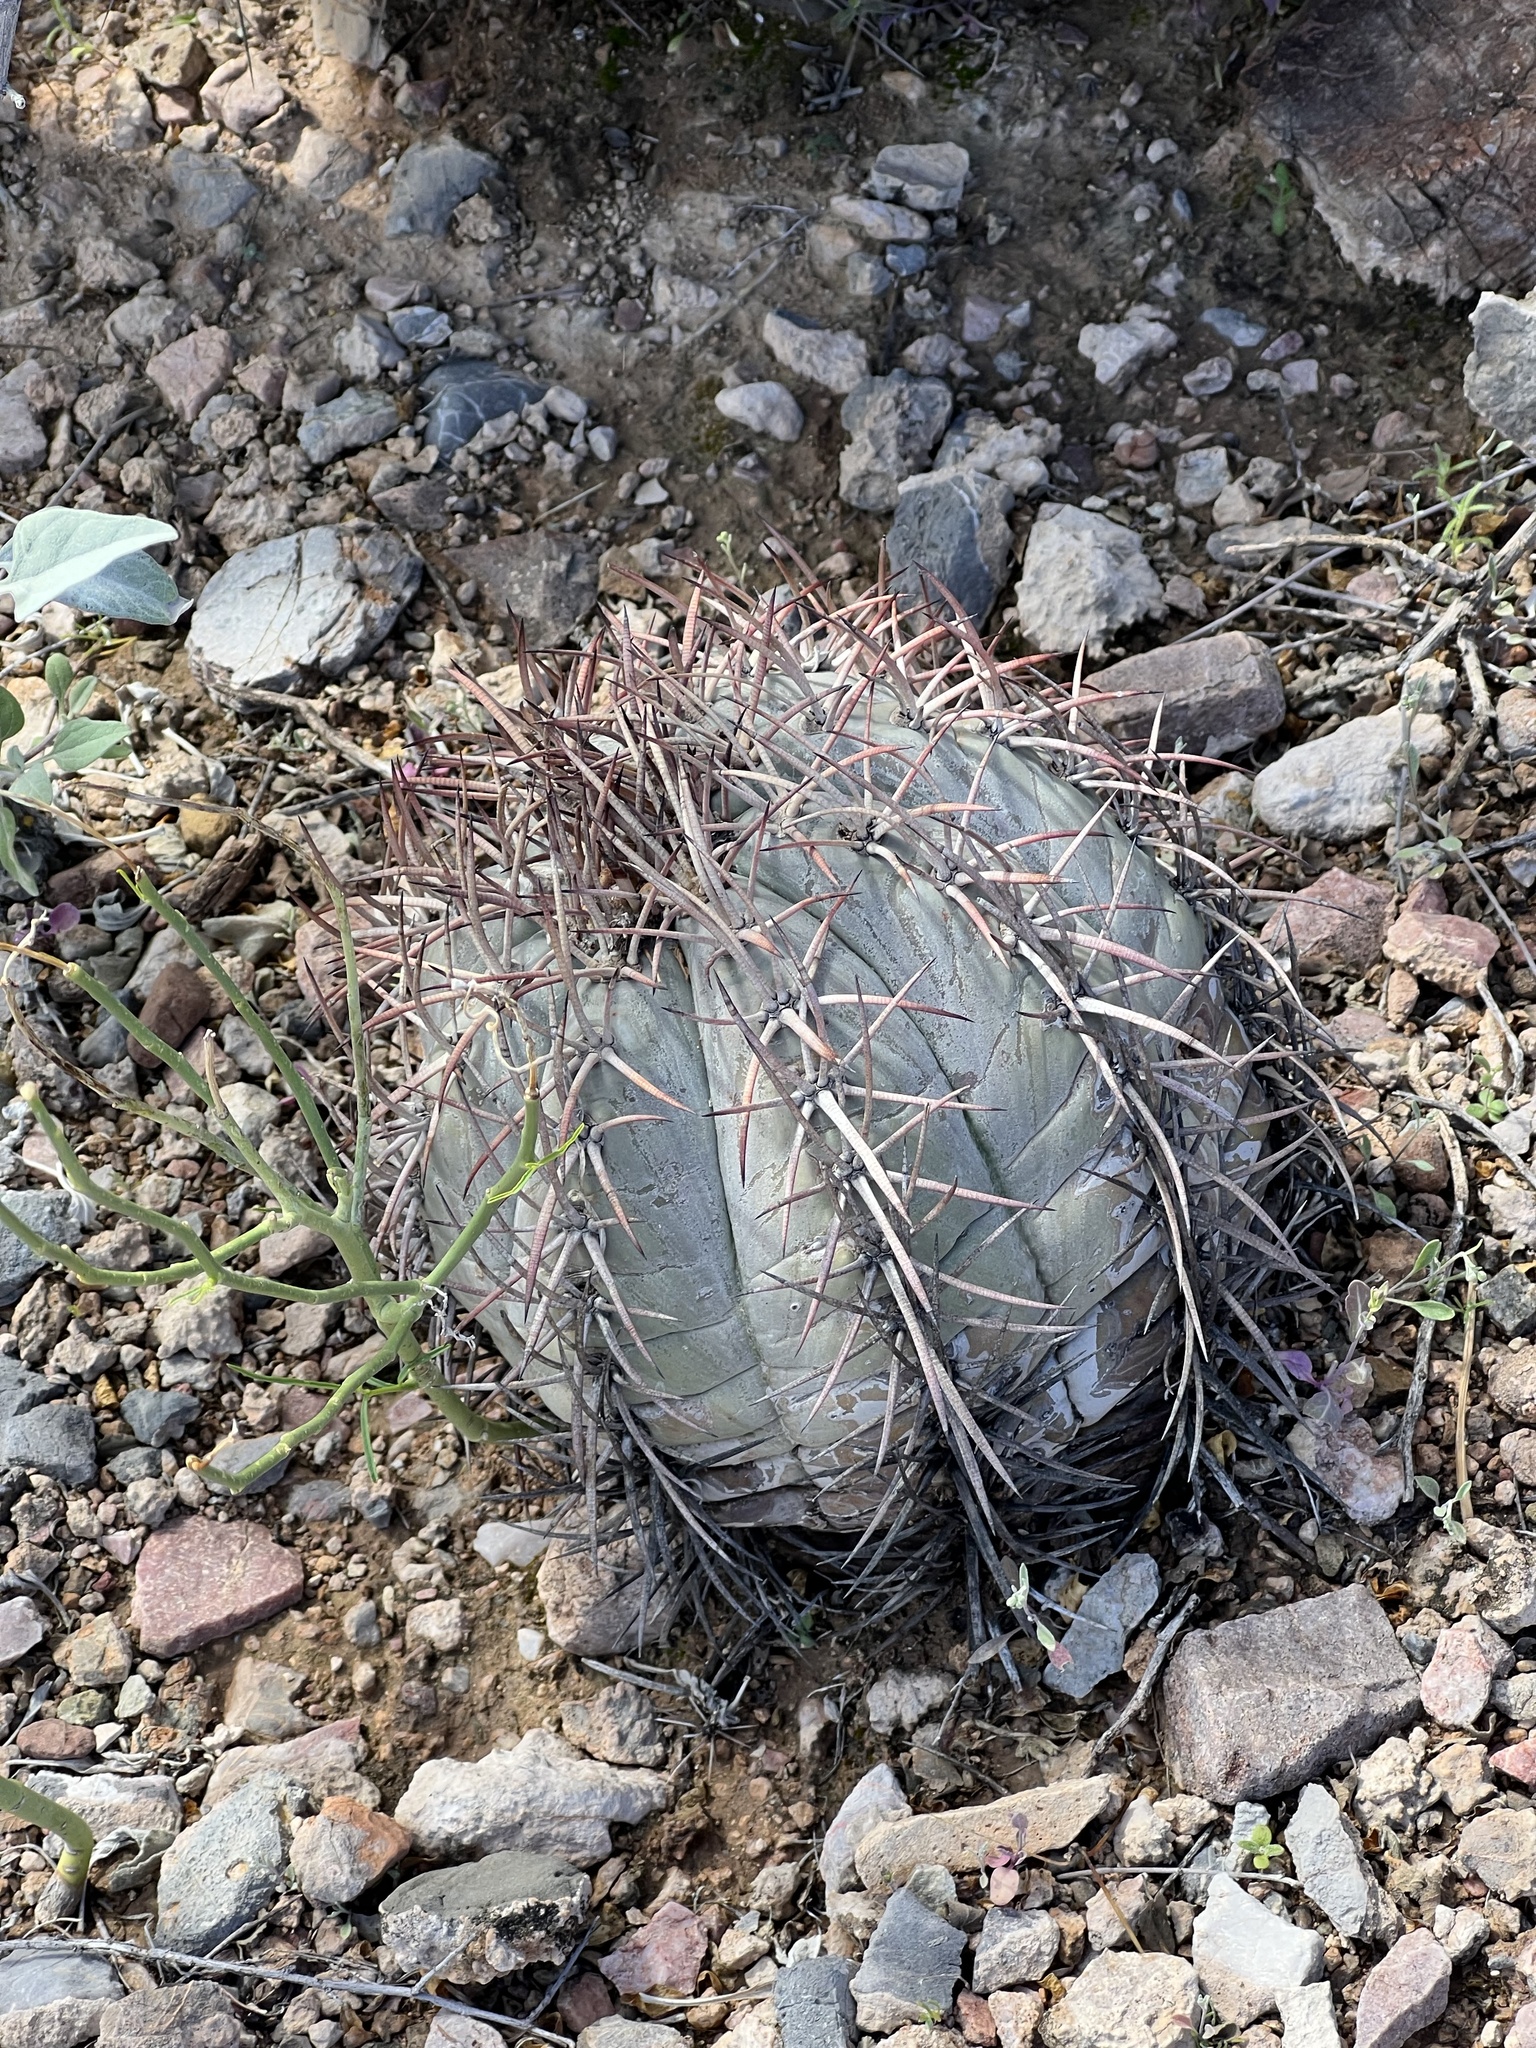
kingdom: Plantae
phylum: Tracheophyta
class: Magnoliopsida
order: Caryophyllales
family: Cactaceae
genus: Echinocactus
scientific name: Echinocactus horizonthalonius
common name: Devilshead
